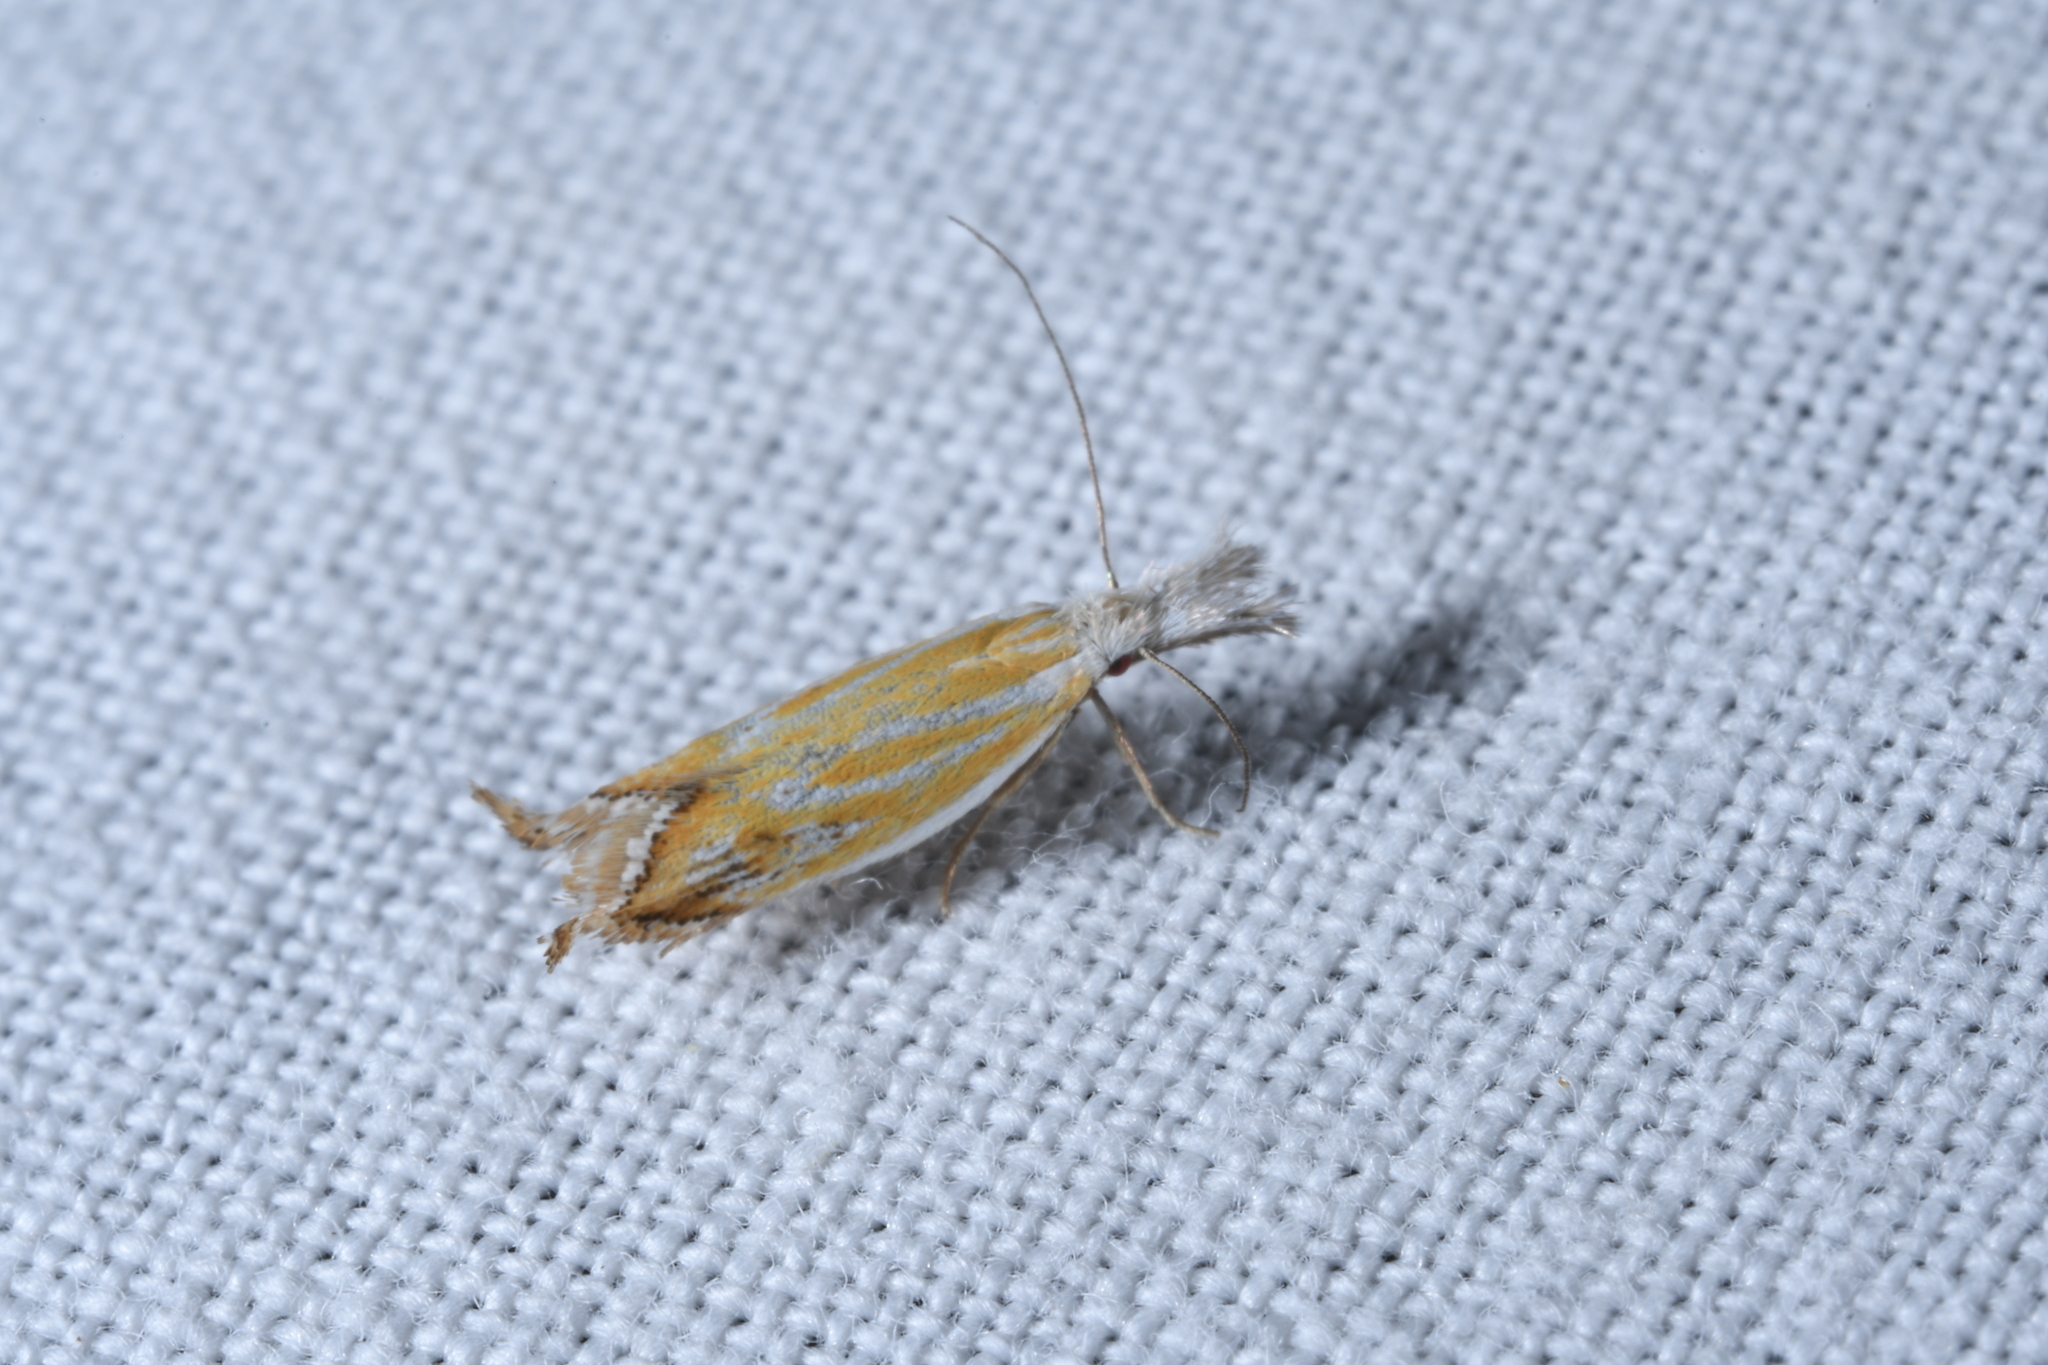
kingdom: Animalia
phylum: Arthropoda
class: Insecta
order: Lepidoptera
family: Oecophoridae
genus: Pleurota
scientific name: Pleurota huebneri
